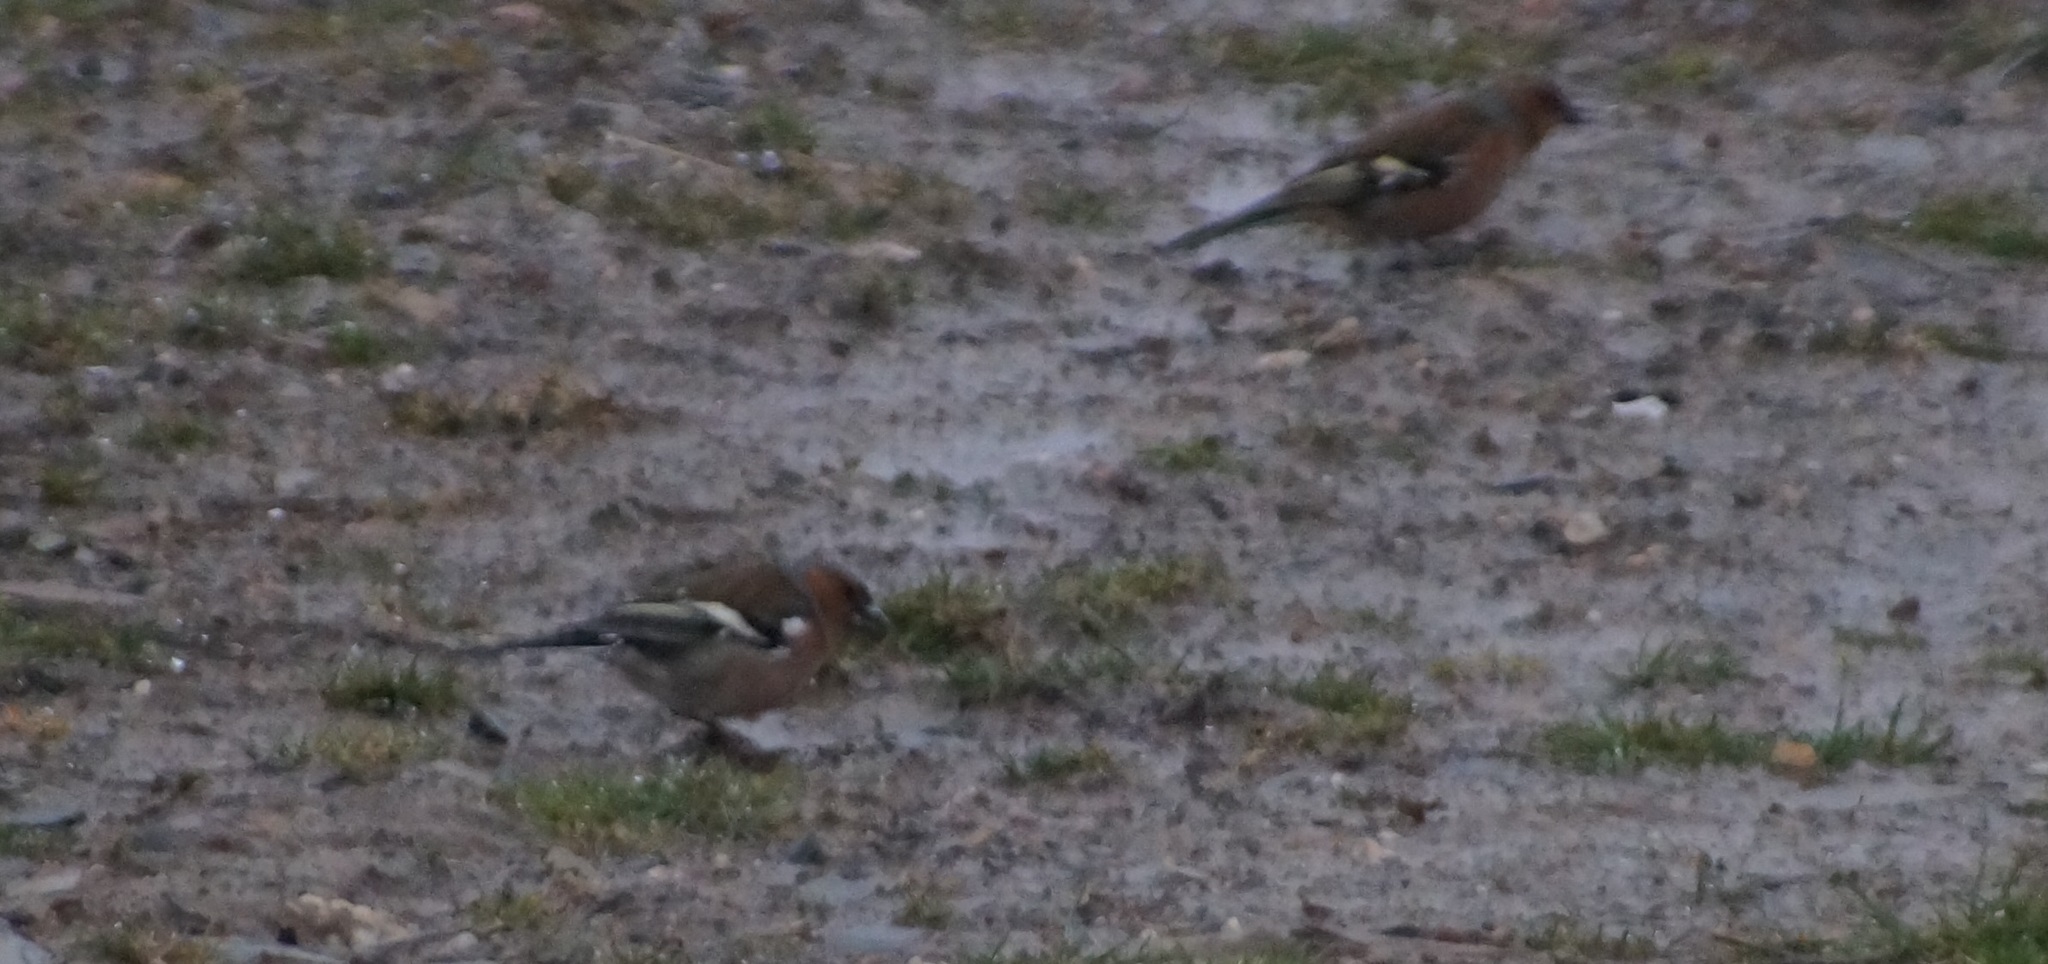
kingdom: Animalia
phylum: Chordata
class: Aves
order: Passeriformes
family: Fringillidae
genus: Fringilla
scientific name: Fringilla coelebs
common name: Common chaffinch
